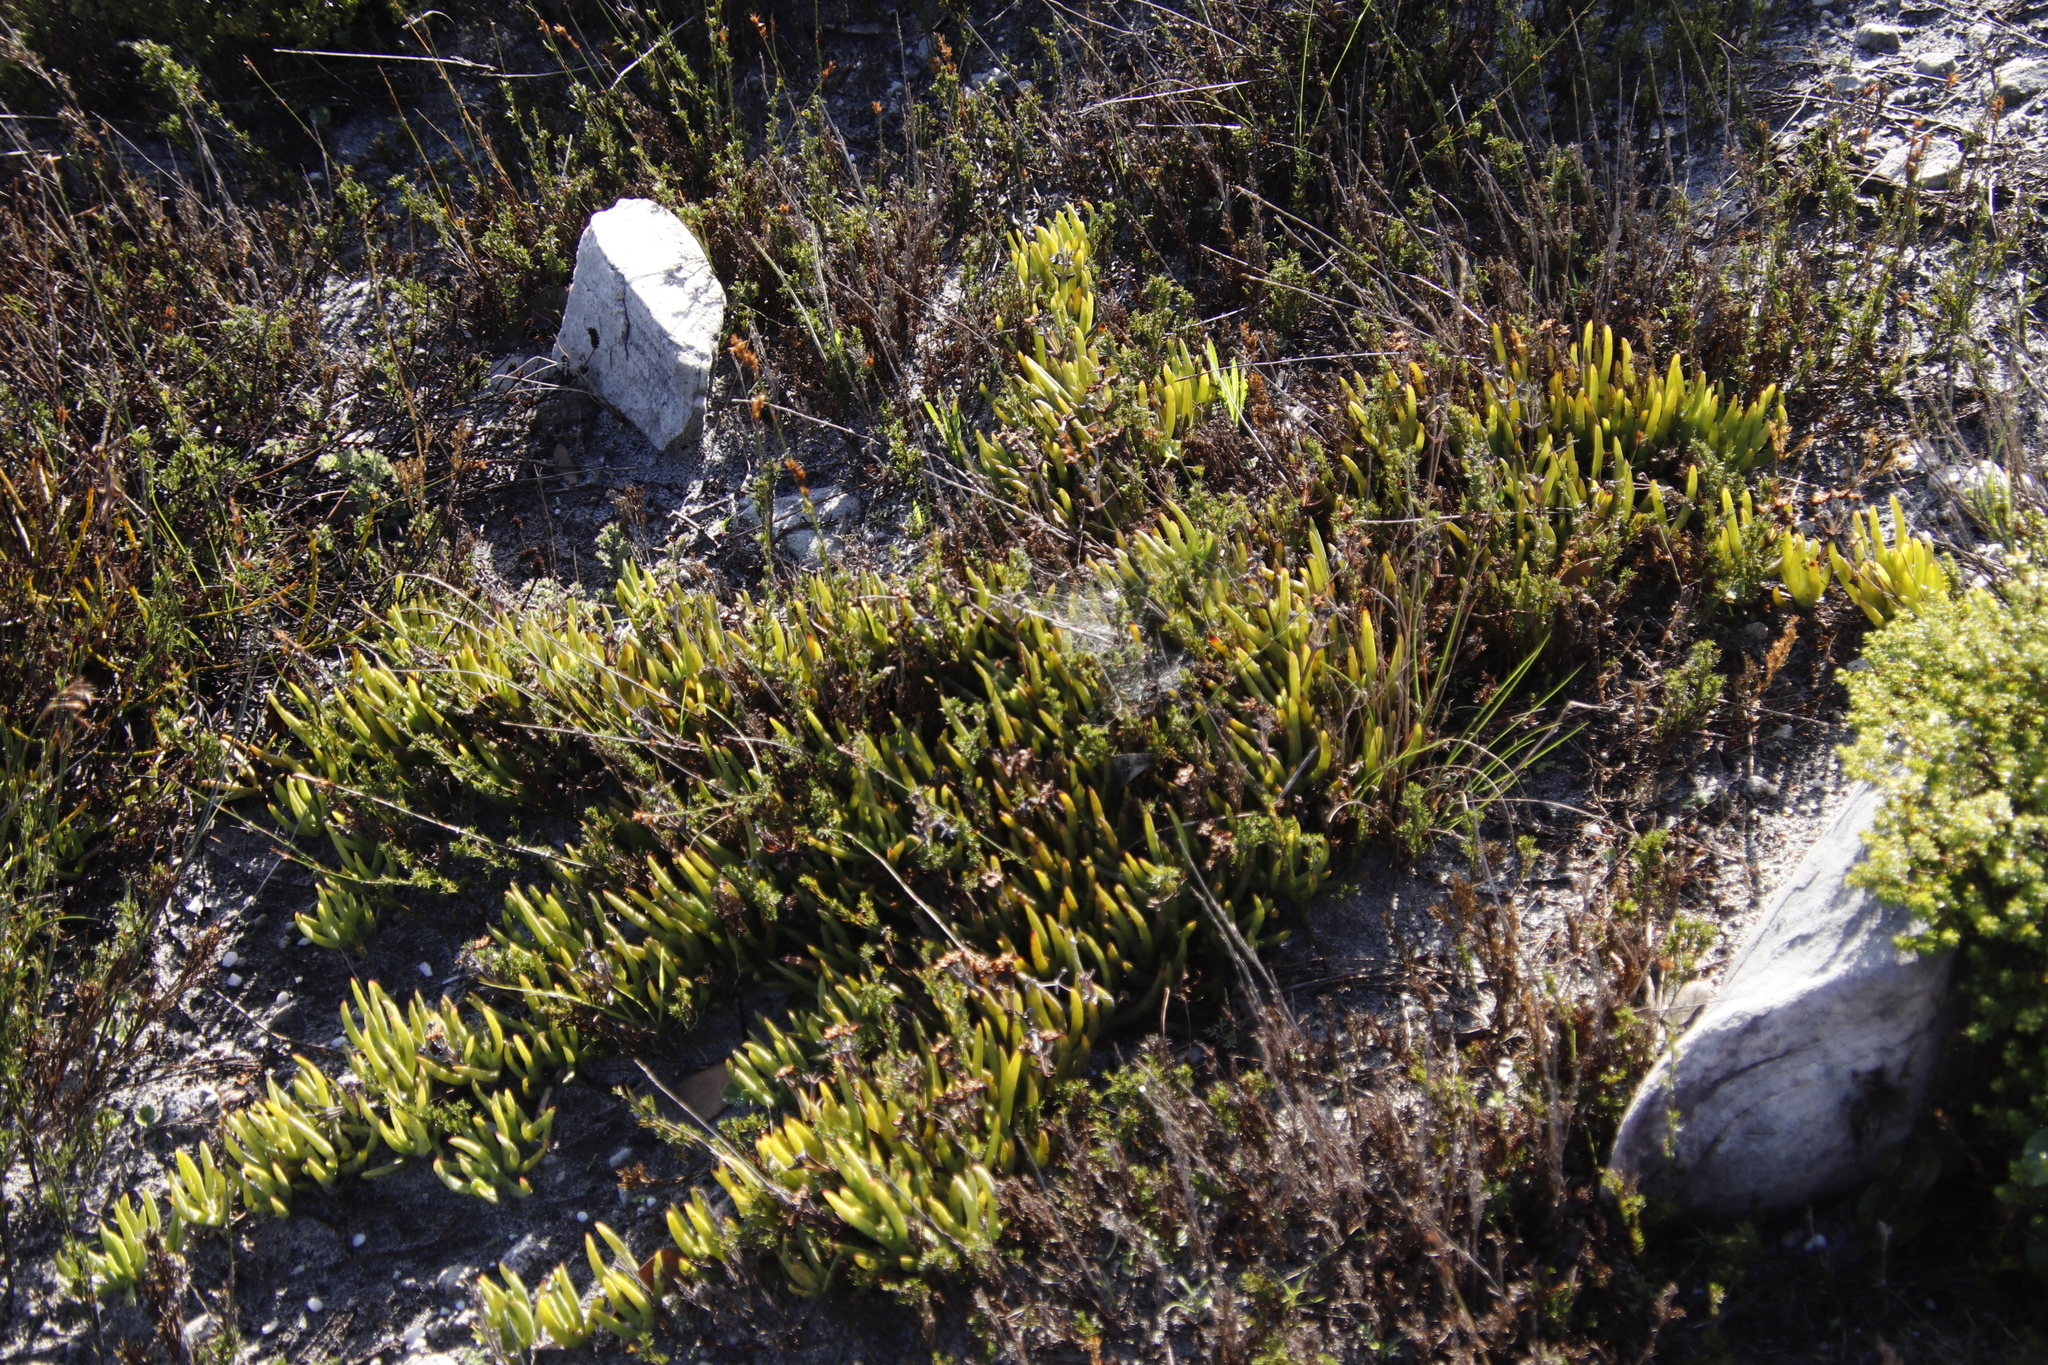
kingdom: Plantae
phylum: Tracheophyta
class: Magnoliopsida
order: Caryophyllales
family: Aizoaceae
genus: Ruschia
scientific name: Ruschia sarmentosa
